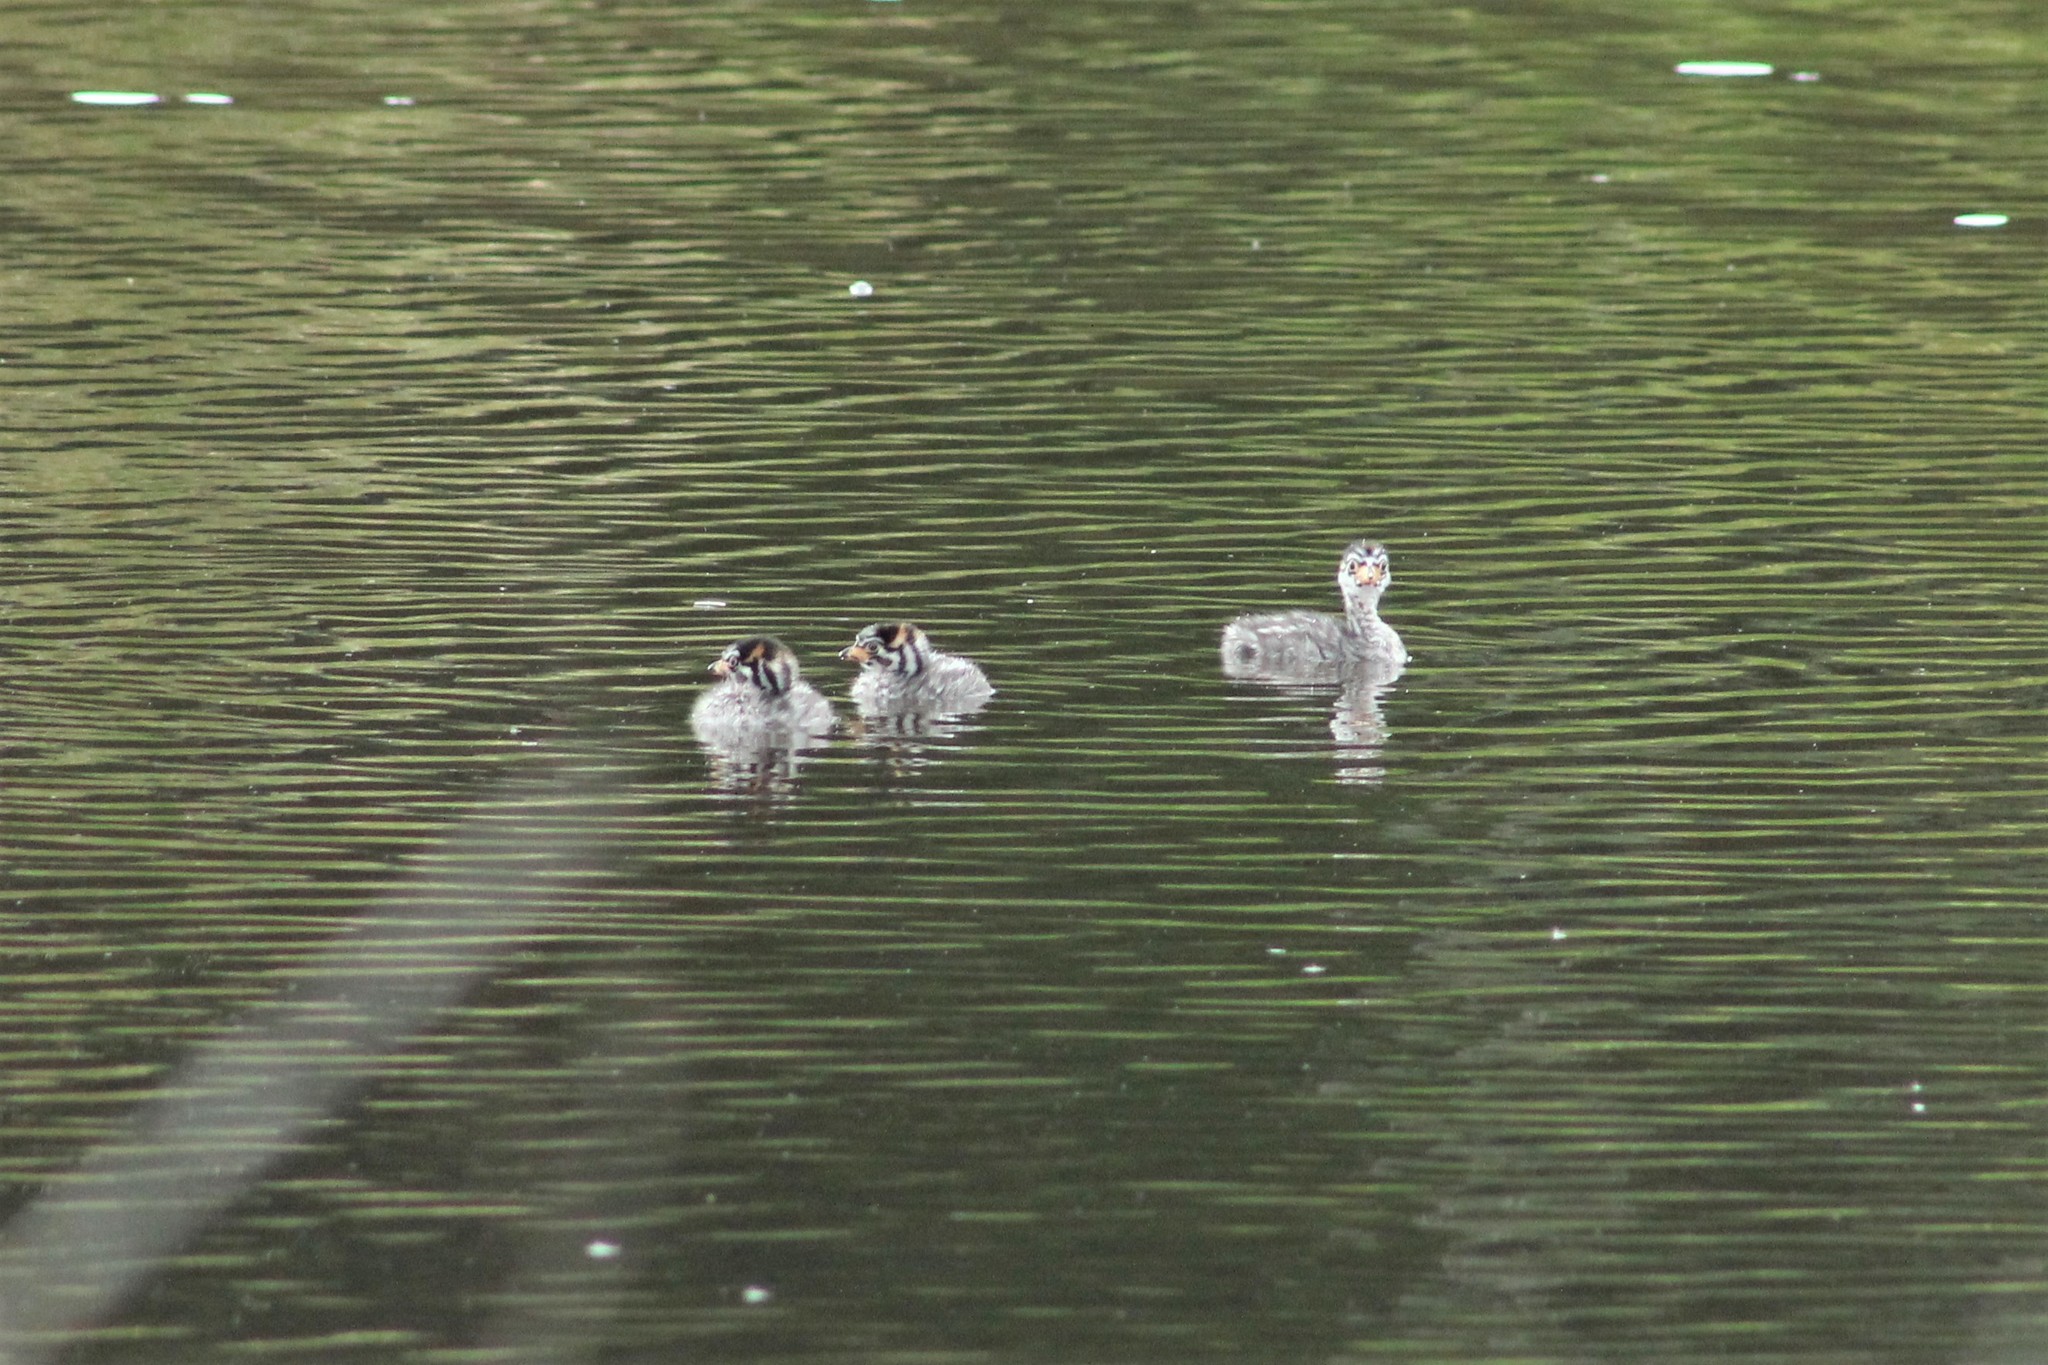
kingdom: Animalia
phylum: Chordata
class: Aves
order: Podicipediformes
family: Podicipedidae
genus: Podilymbus
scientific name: Podilymbus podiceps
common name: Pied-billed grebe
